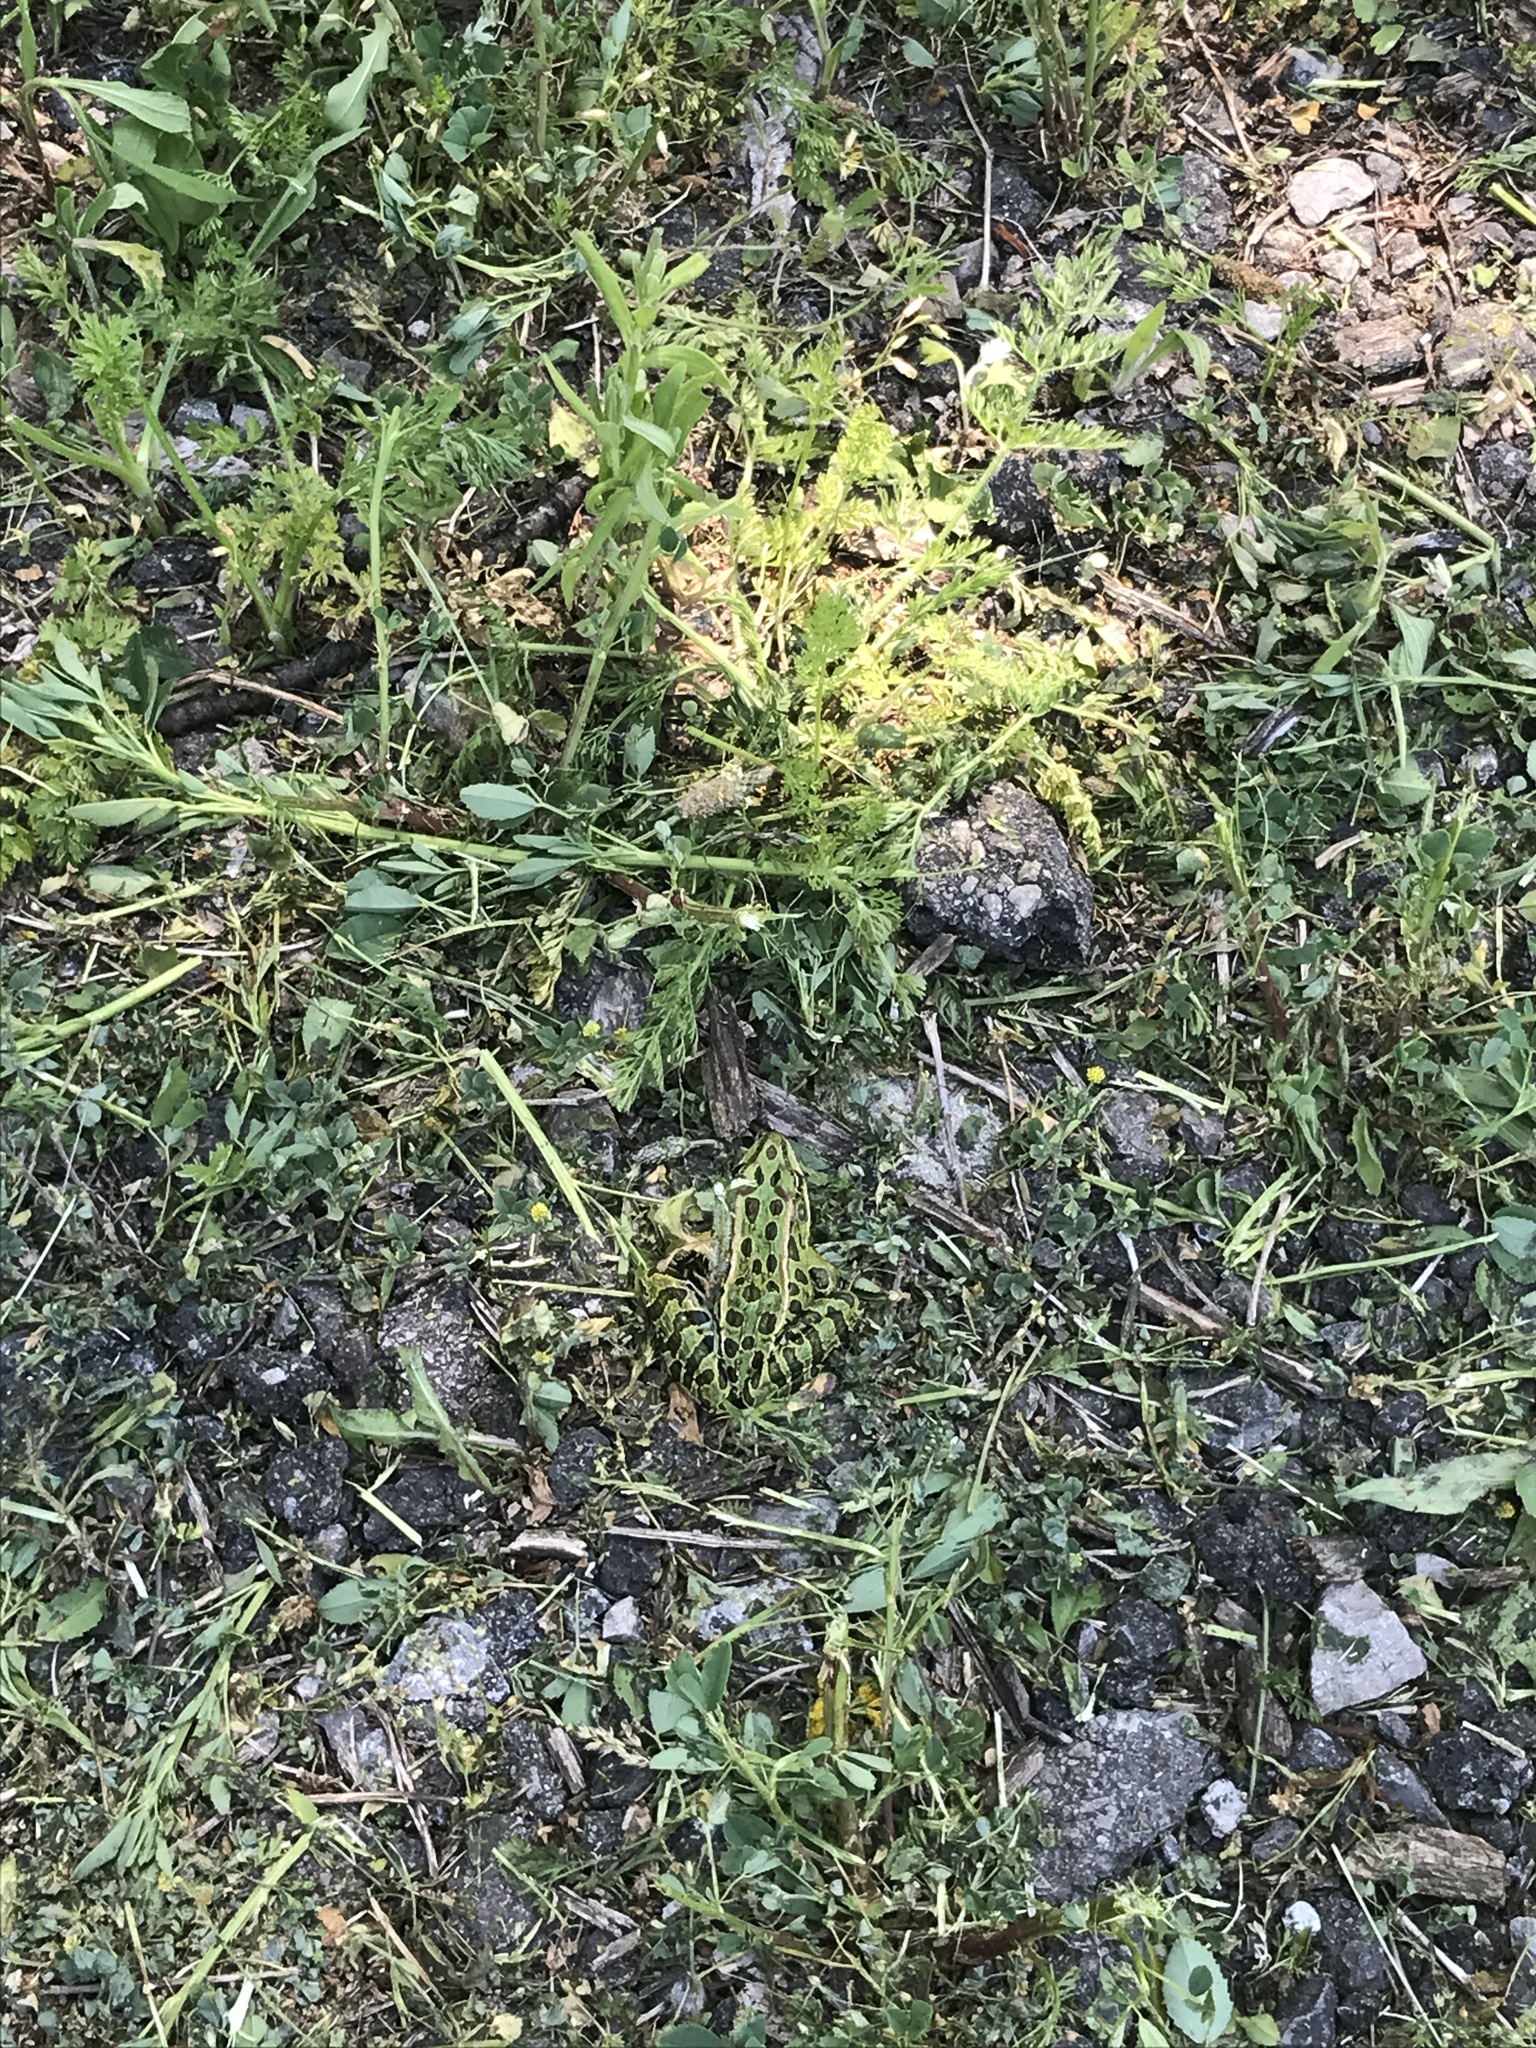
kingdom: Animalia
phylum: Chordata
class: Amphibia
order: Anura
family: Ranidae
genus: Lithobates
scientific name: Lithobates pipiens
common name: Northern leopard frog
